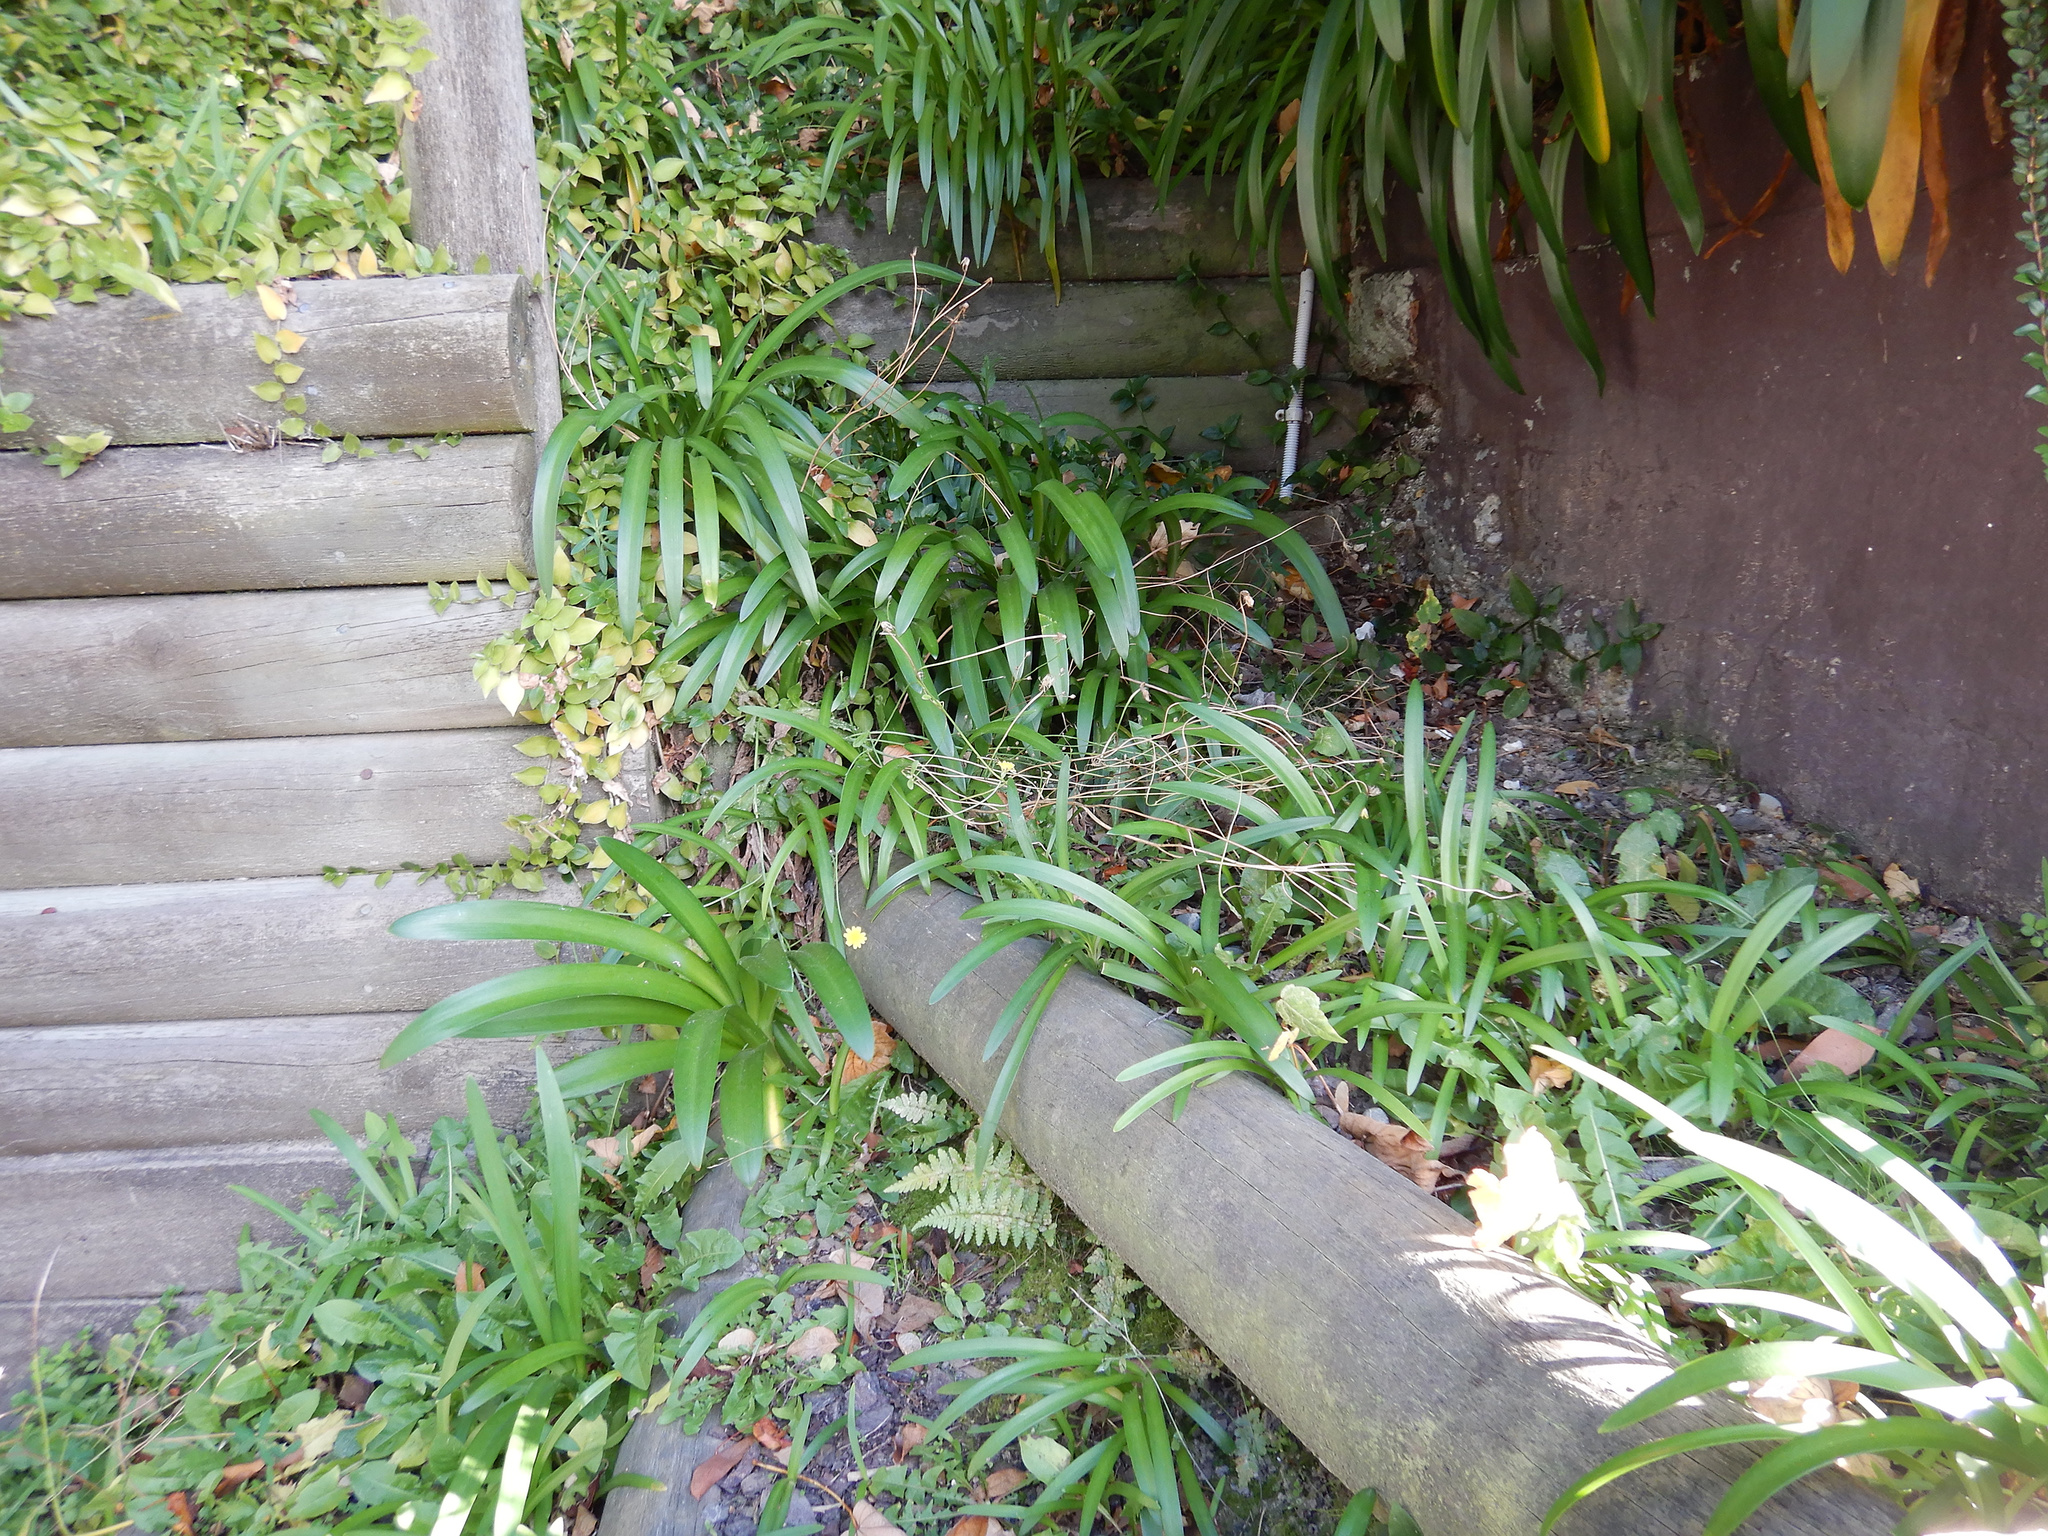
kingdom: Plantae
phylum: Tracheophyta
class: Liliopsida
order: Asparagales
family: Amaryllidaceae
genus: Agapanthus
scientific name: Agapanthus praecox
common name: African-lily
